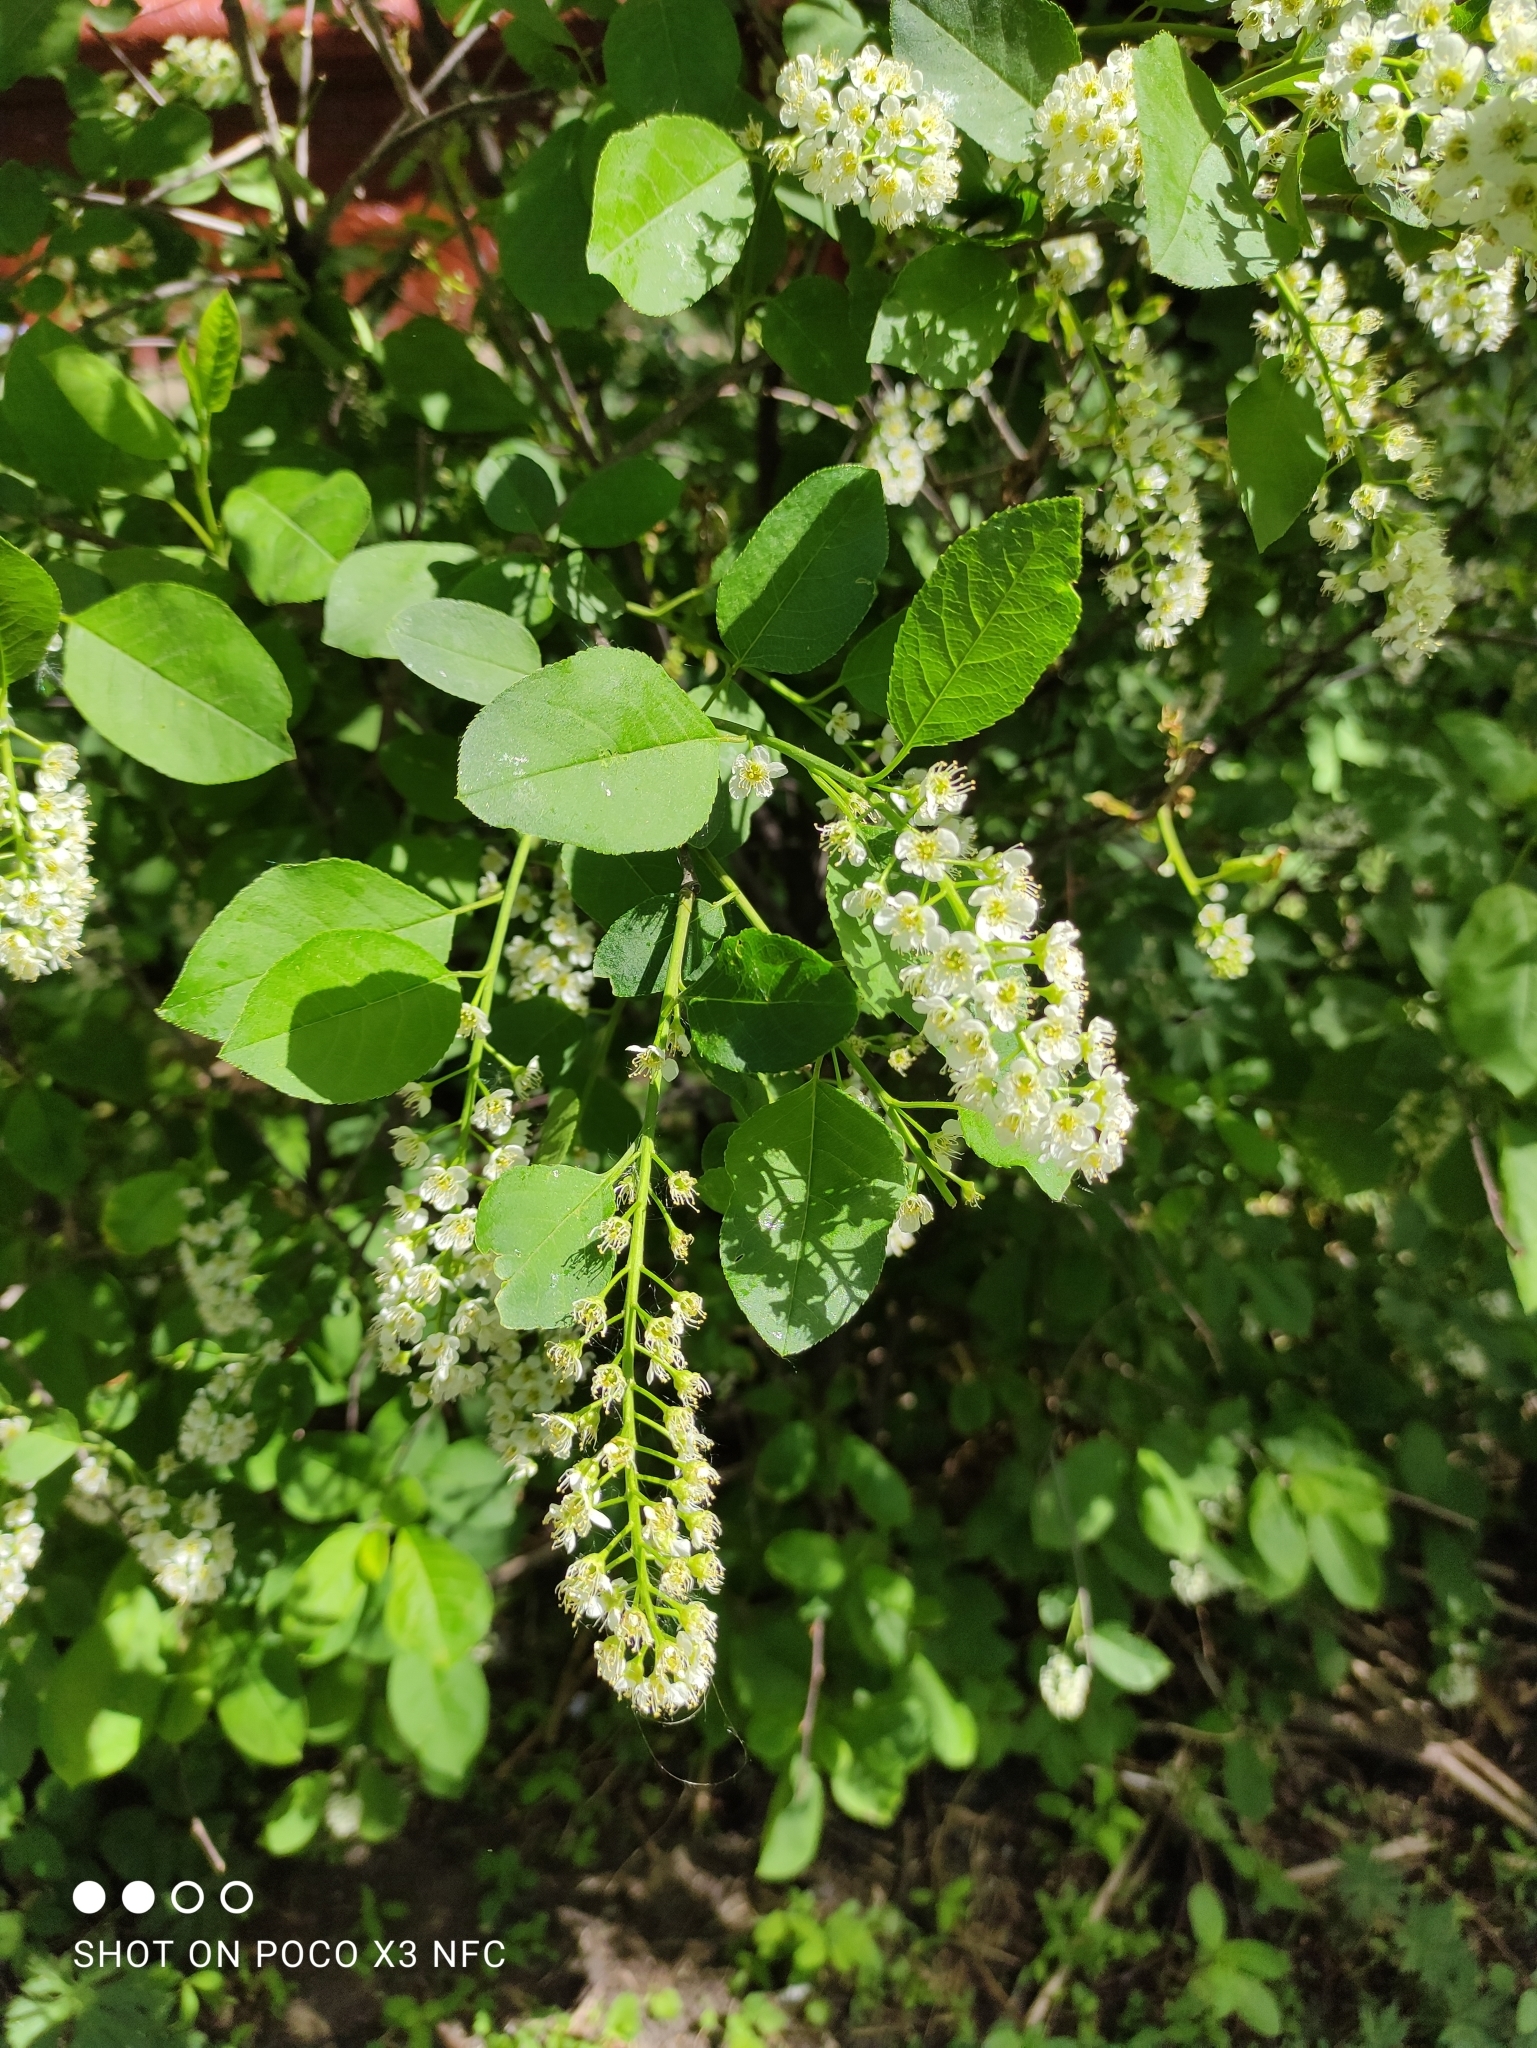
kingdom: Plantae
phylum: Tracheophyta
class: Magnoliopsida
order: Rosales
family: Rosaceae
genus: Prunus
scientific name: Prunus virginiana
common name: Chokecherry
